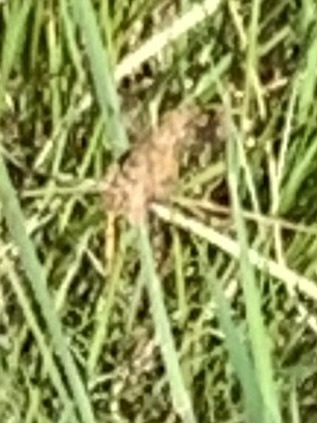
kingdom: Animalia
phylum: Arthropoda
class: Insecta
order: Lepidoptera
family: Geometridae
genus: Ematurga
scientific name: Ematurga atomaria
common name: Common heath
